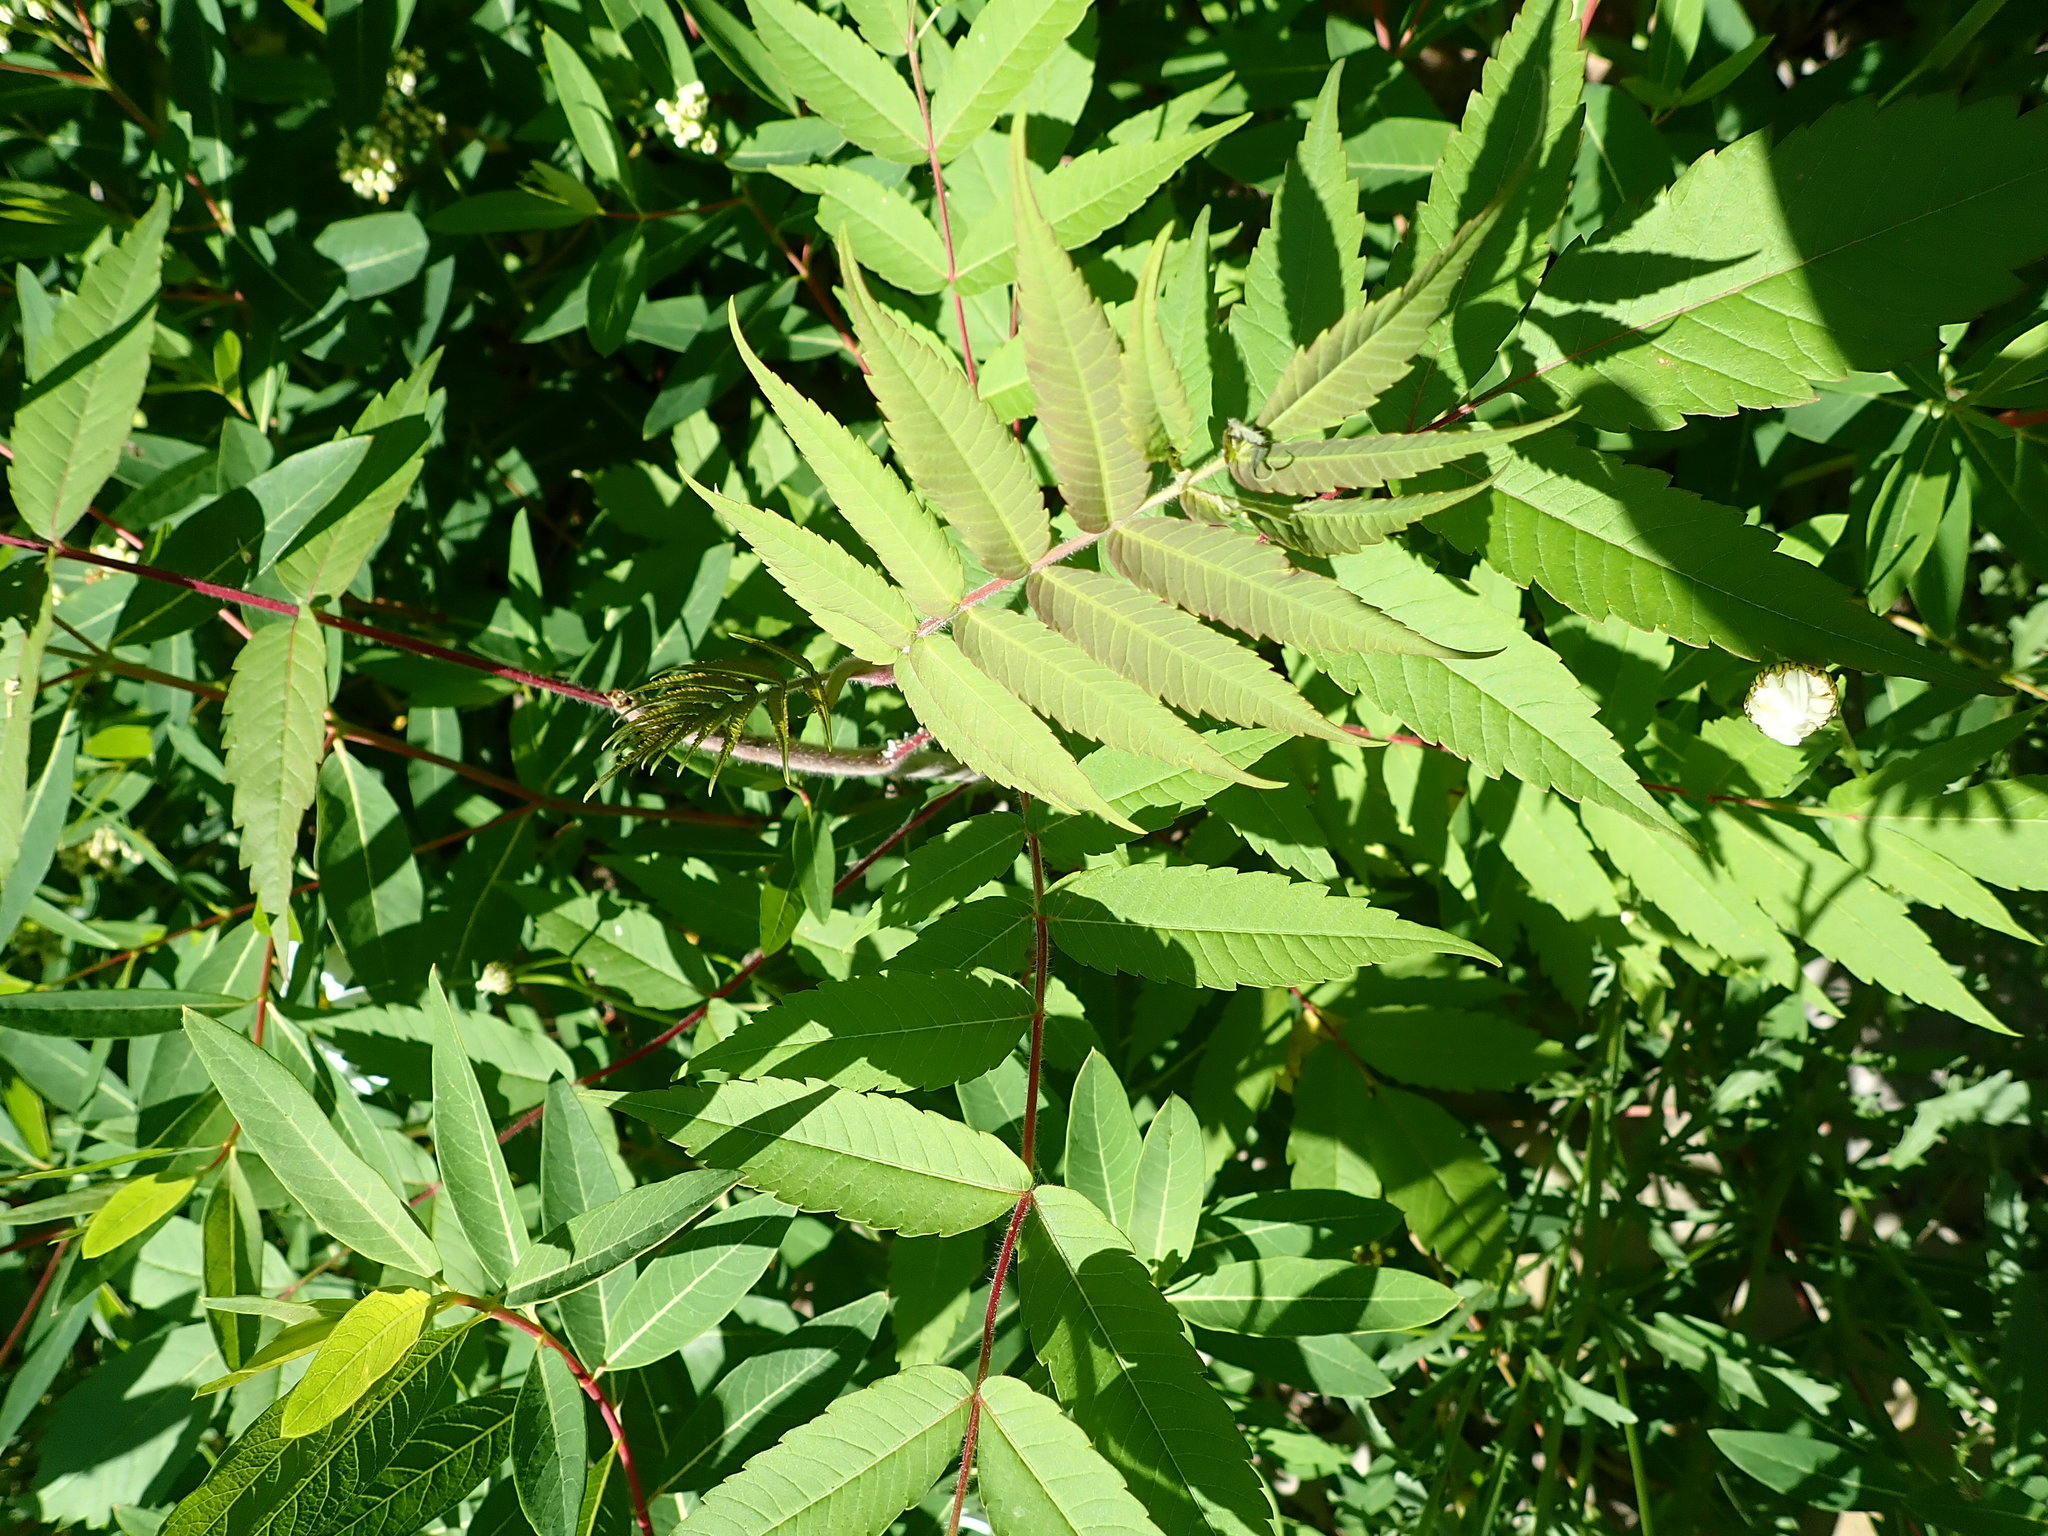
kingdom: Plantae
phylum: Tracheophyta
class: Magnoliopsida
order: Sapindales
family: Anacardiaceae
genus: Rhus
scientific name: Rhus typhina
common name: Staghorn sumac
